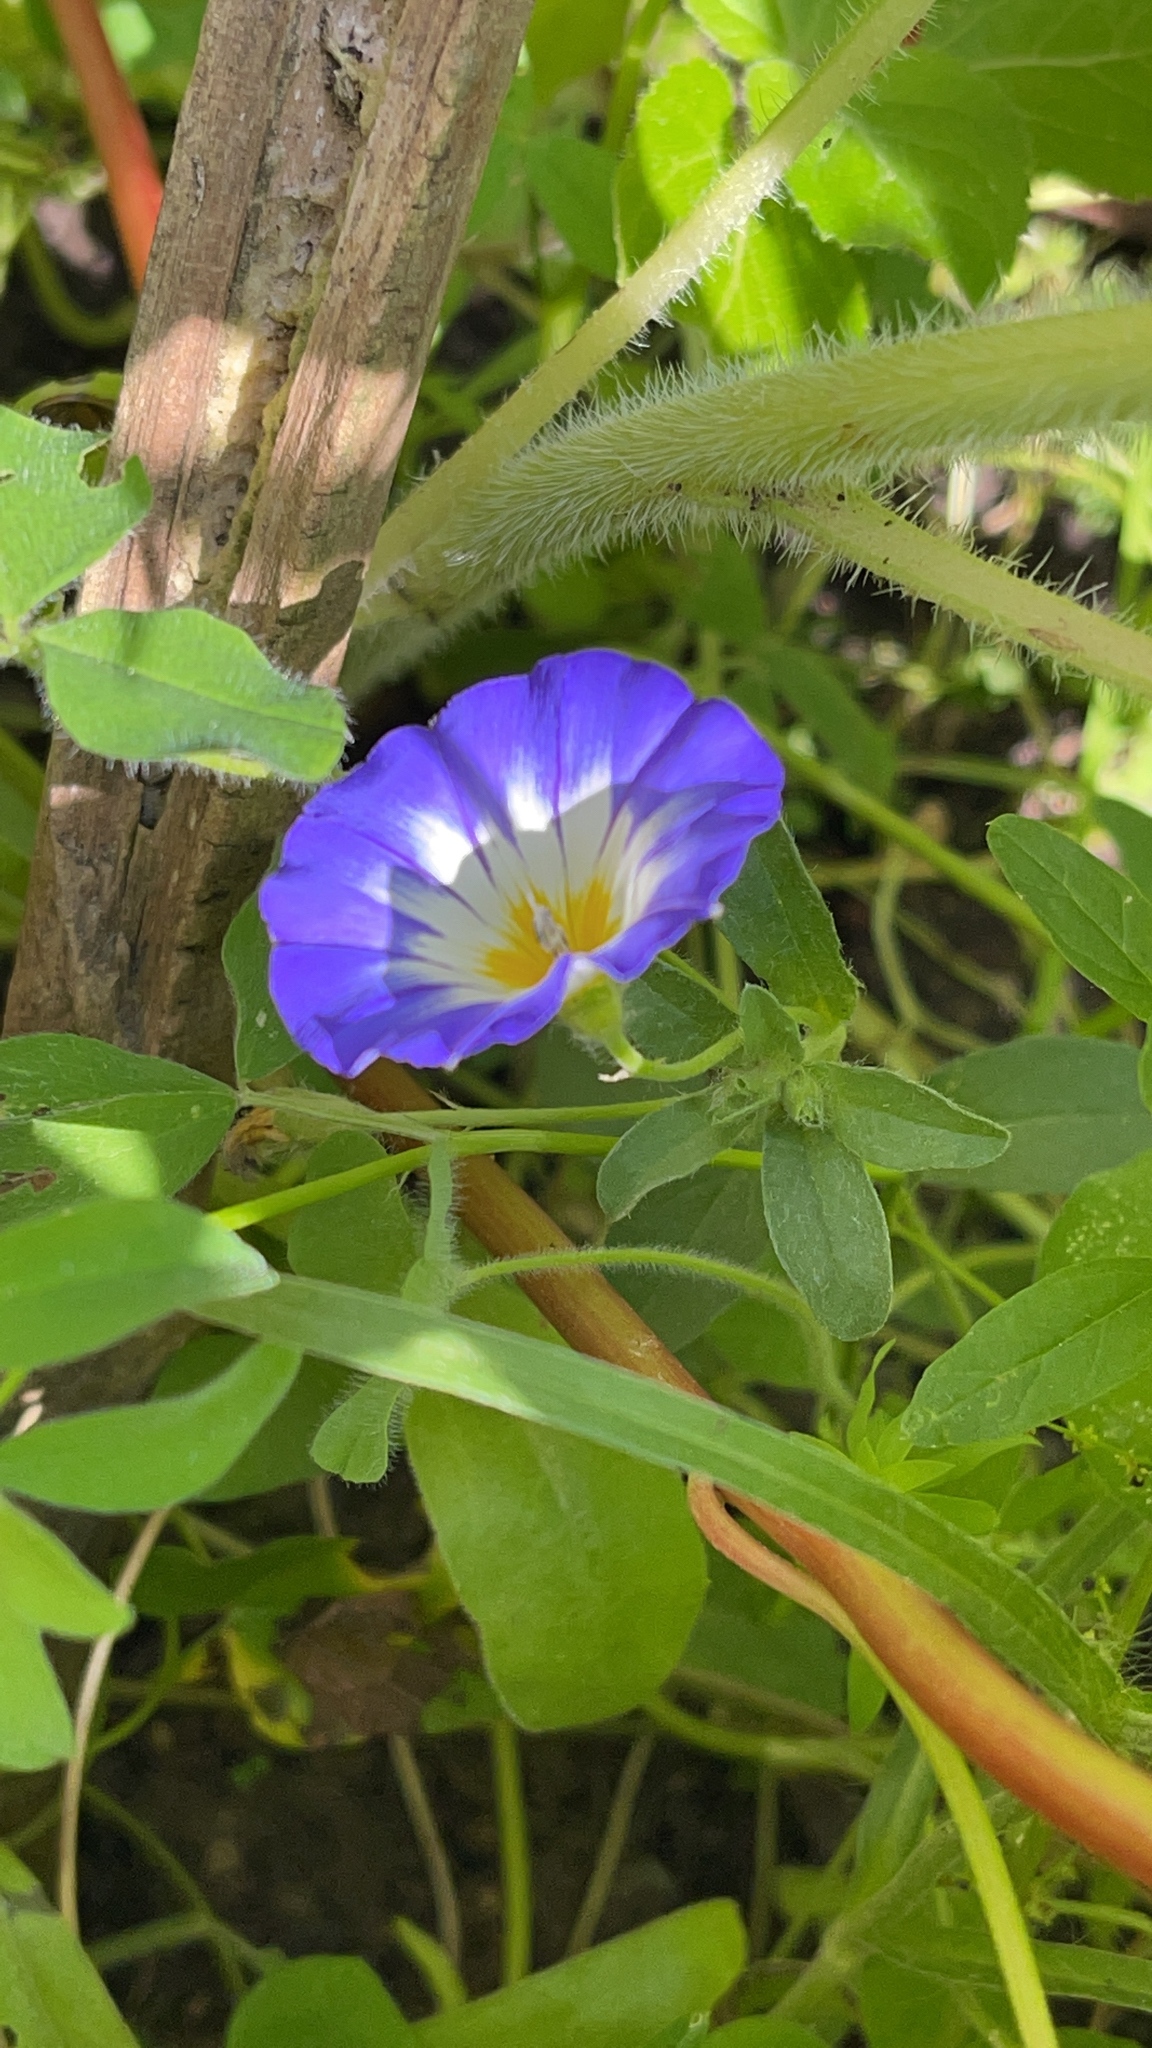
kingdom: Plantae
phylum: Tracheophyta
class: Magnoliopsida
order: Solanales
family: Convolvulaceae
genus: Convolvulus
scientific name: Convolvulus tricolor
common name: Dwarf morning-glory
